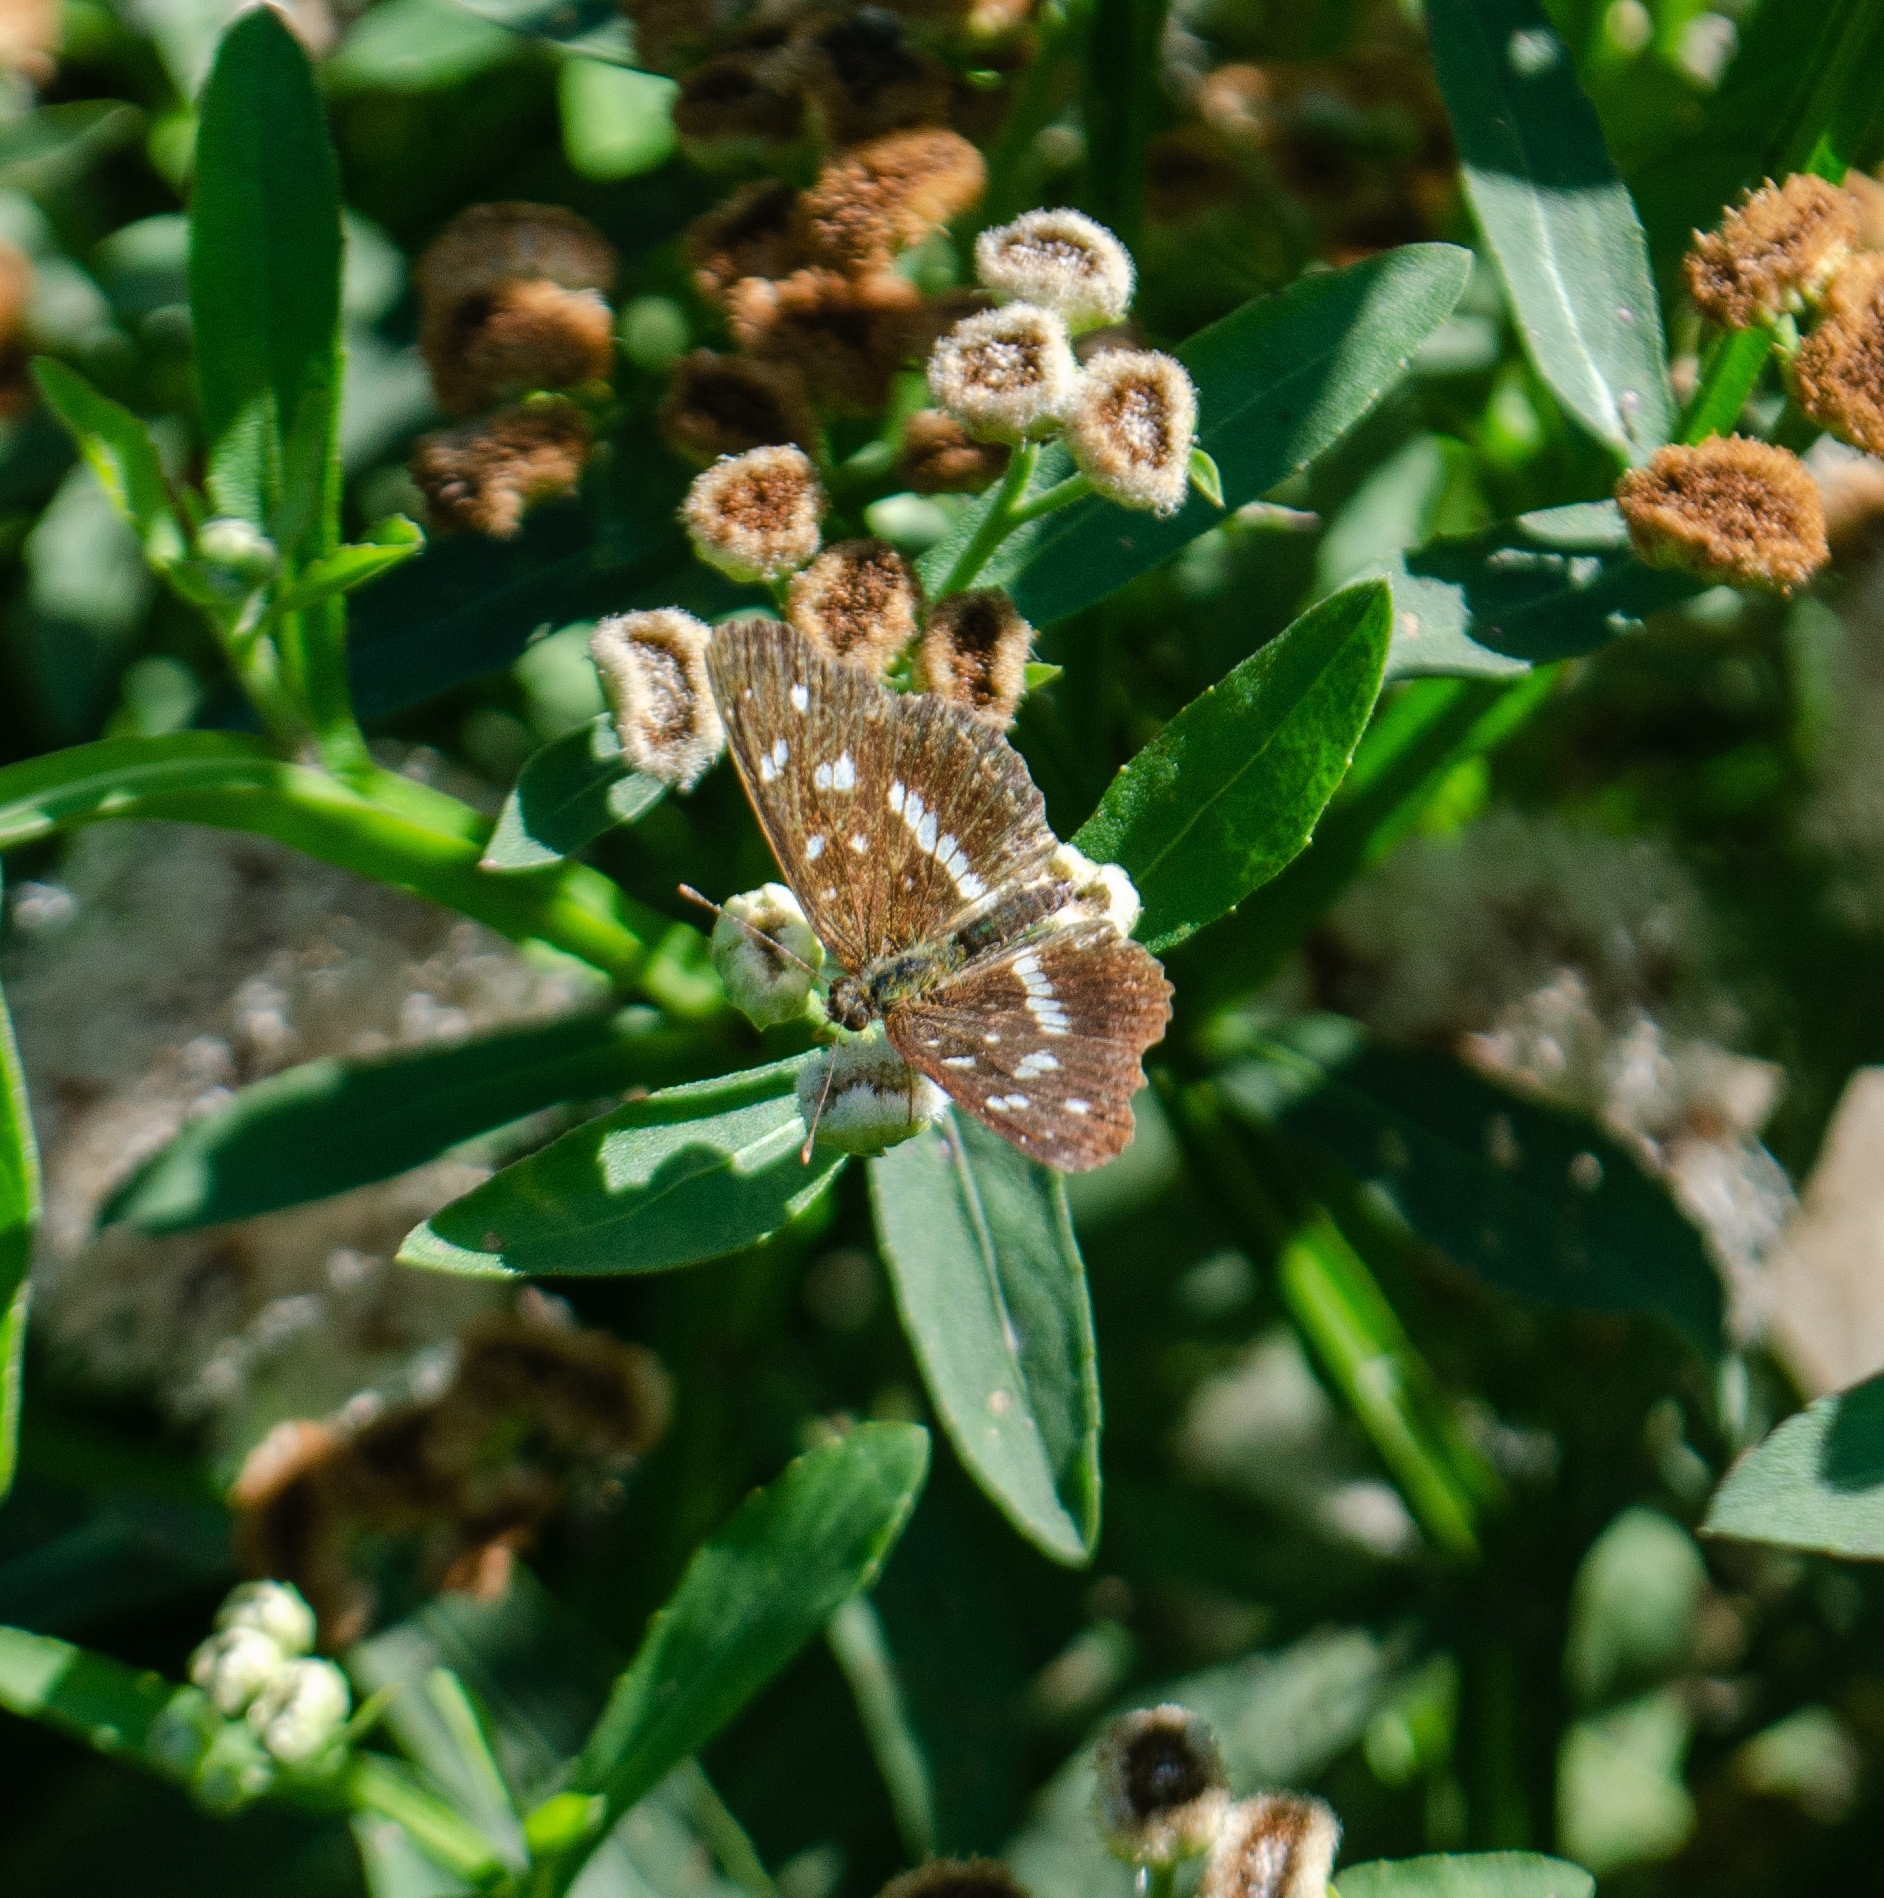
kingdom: Animalia
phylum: Arthropoda
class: Insecta
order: Lepidoptera
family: Nymphalidae
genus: Ortilia
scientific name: Ortilia ithra
